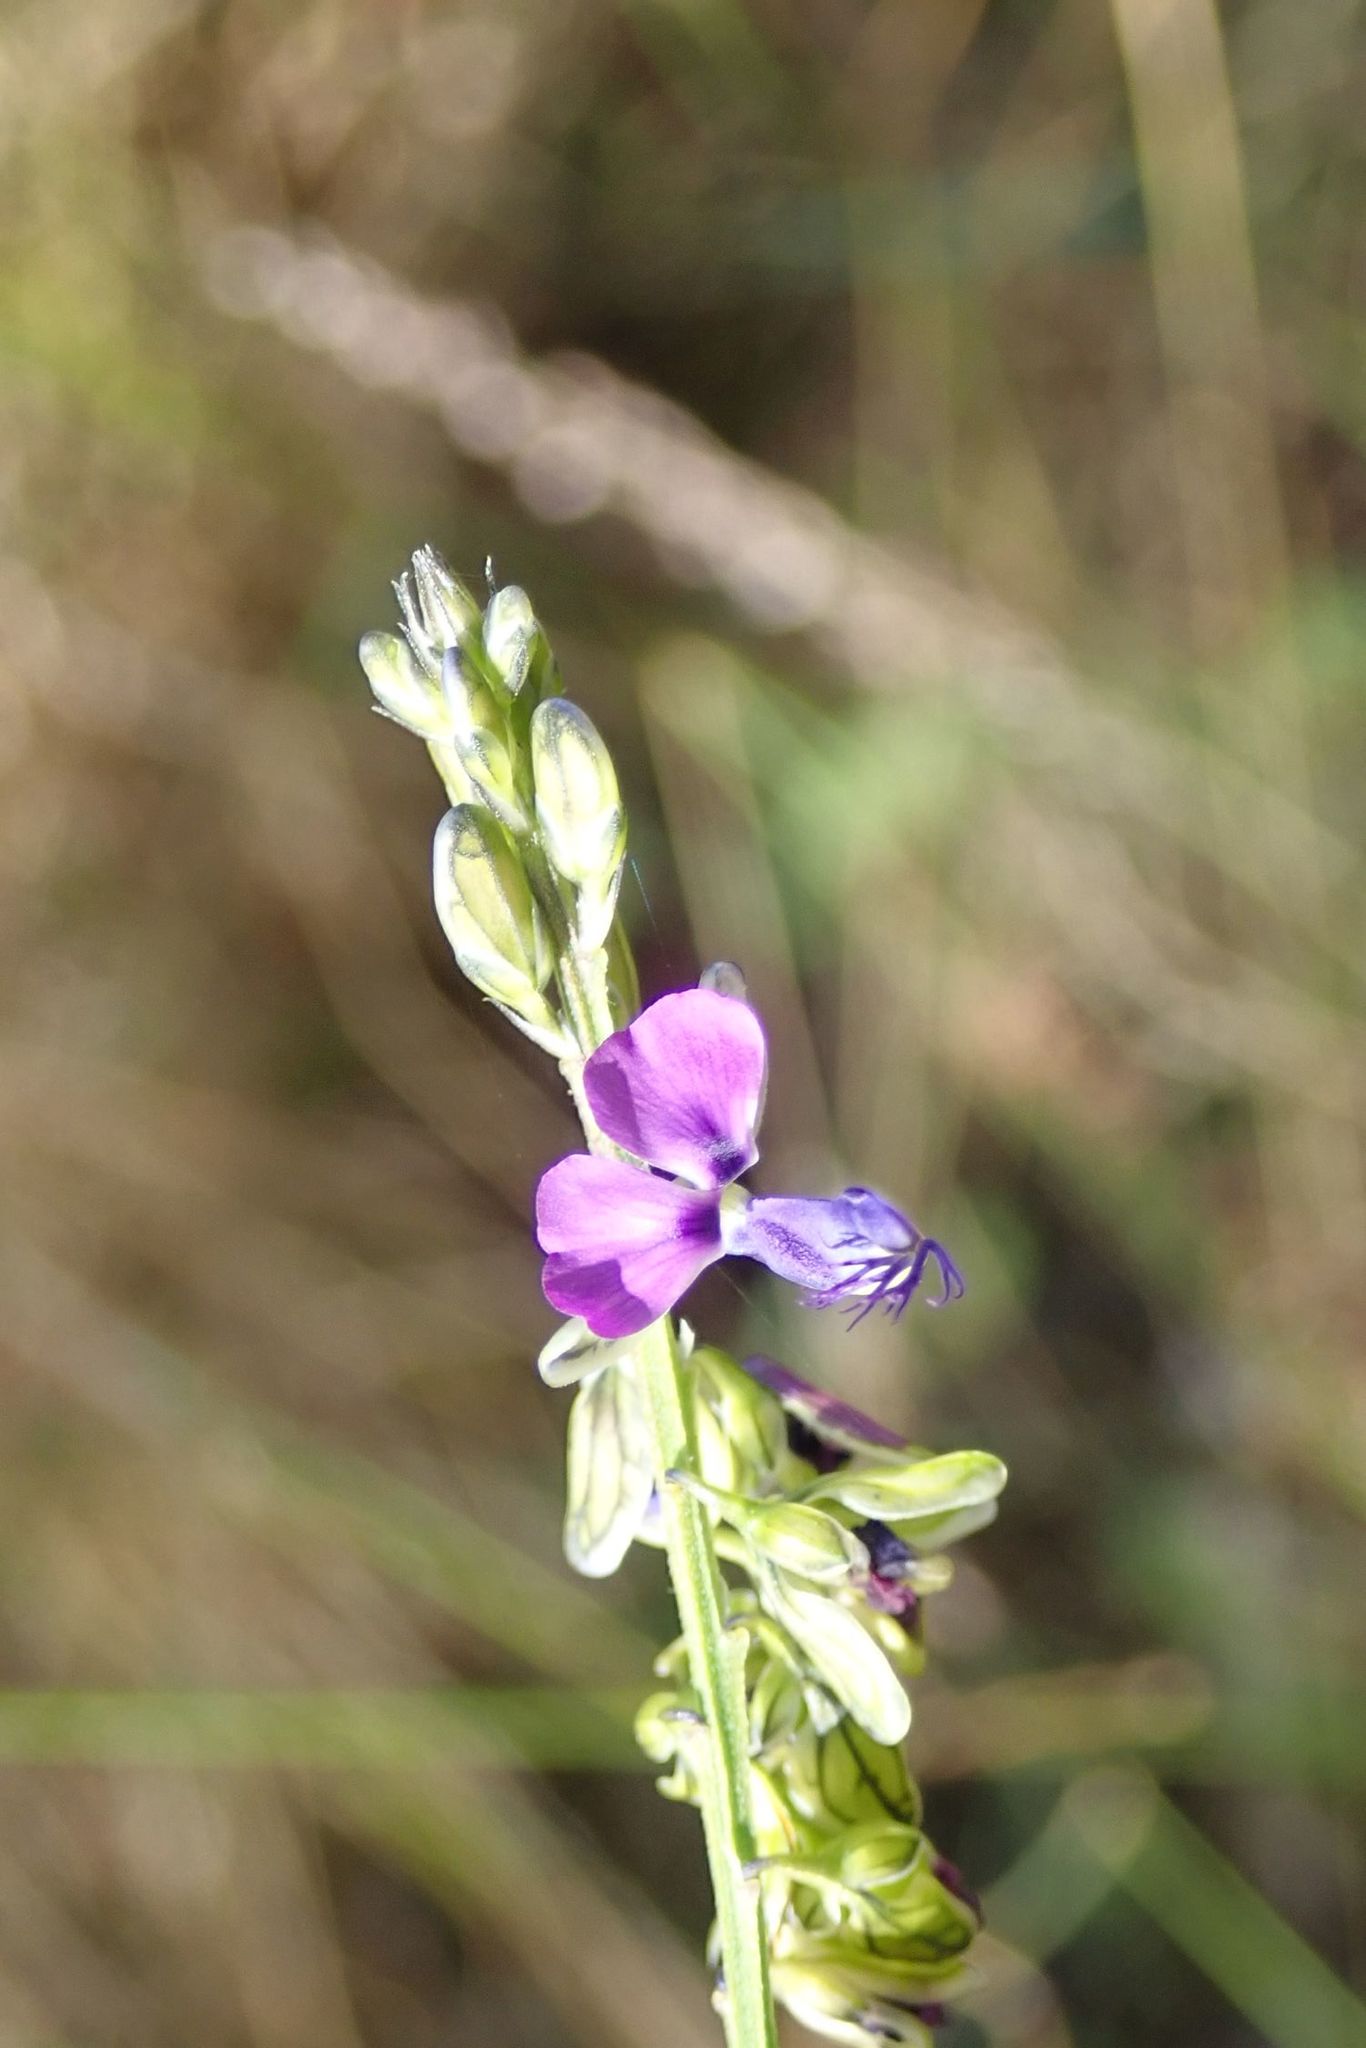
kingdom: Plantae
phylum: Tracheophyta
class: Magnoliopsida
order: Fabales
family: Polygalaceae
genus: Polygala
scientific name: Polygala uncinata
